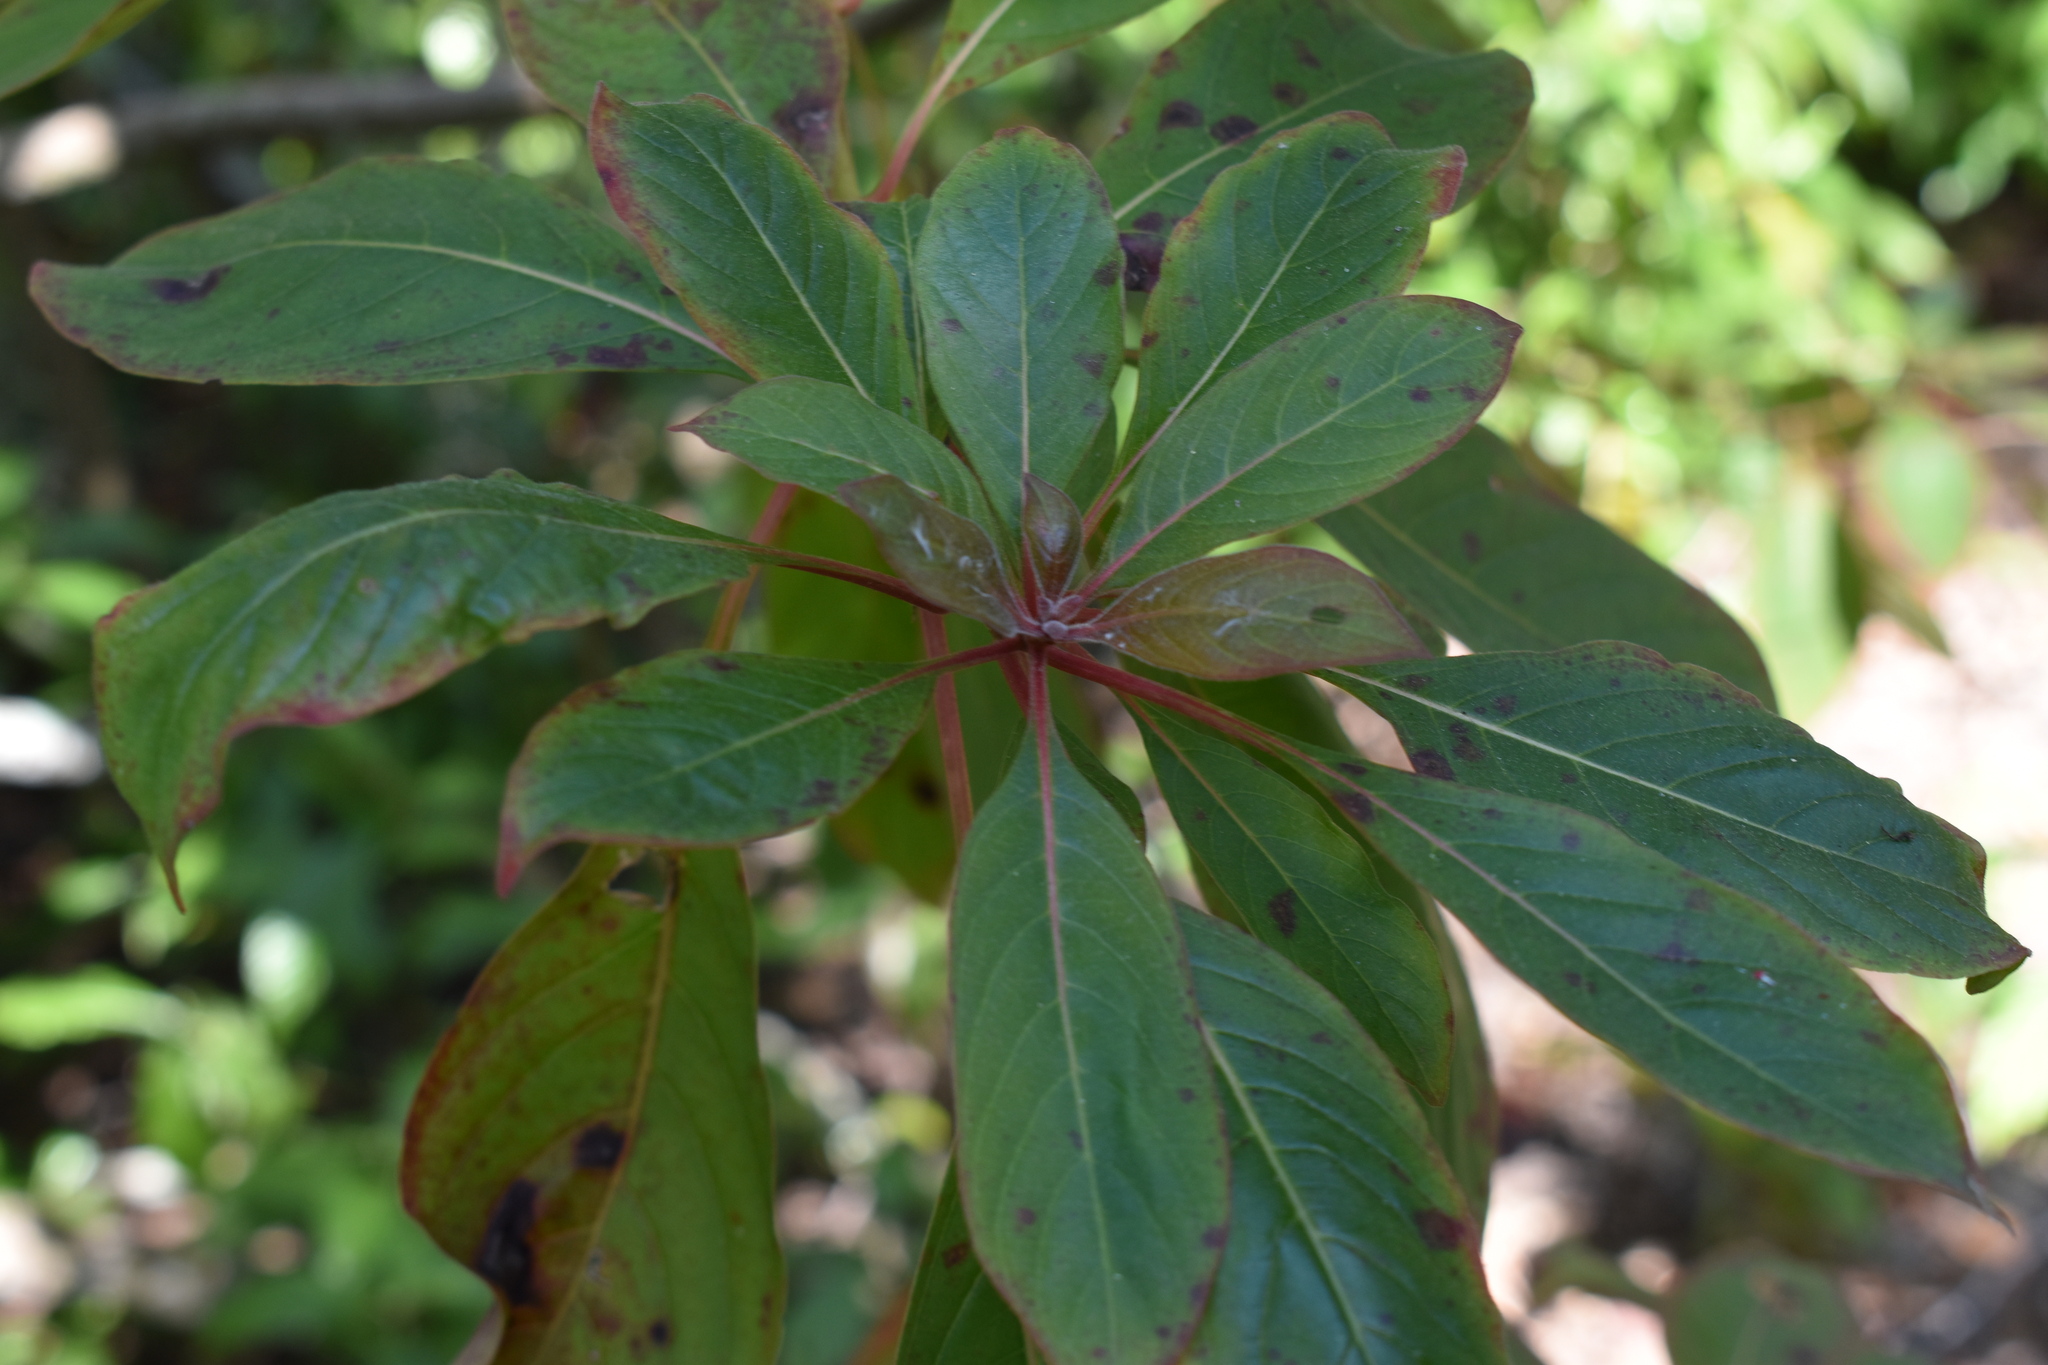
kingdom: Plantae
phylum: Tracheophyta
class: Magnoliopsida
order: Gentianales
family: Rubiaceae
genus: Hamelia
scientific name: Hamelia patens
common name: Redhead
